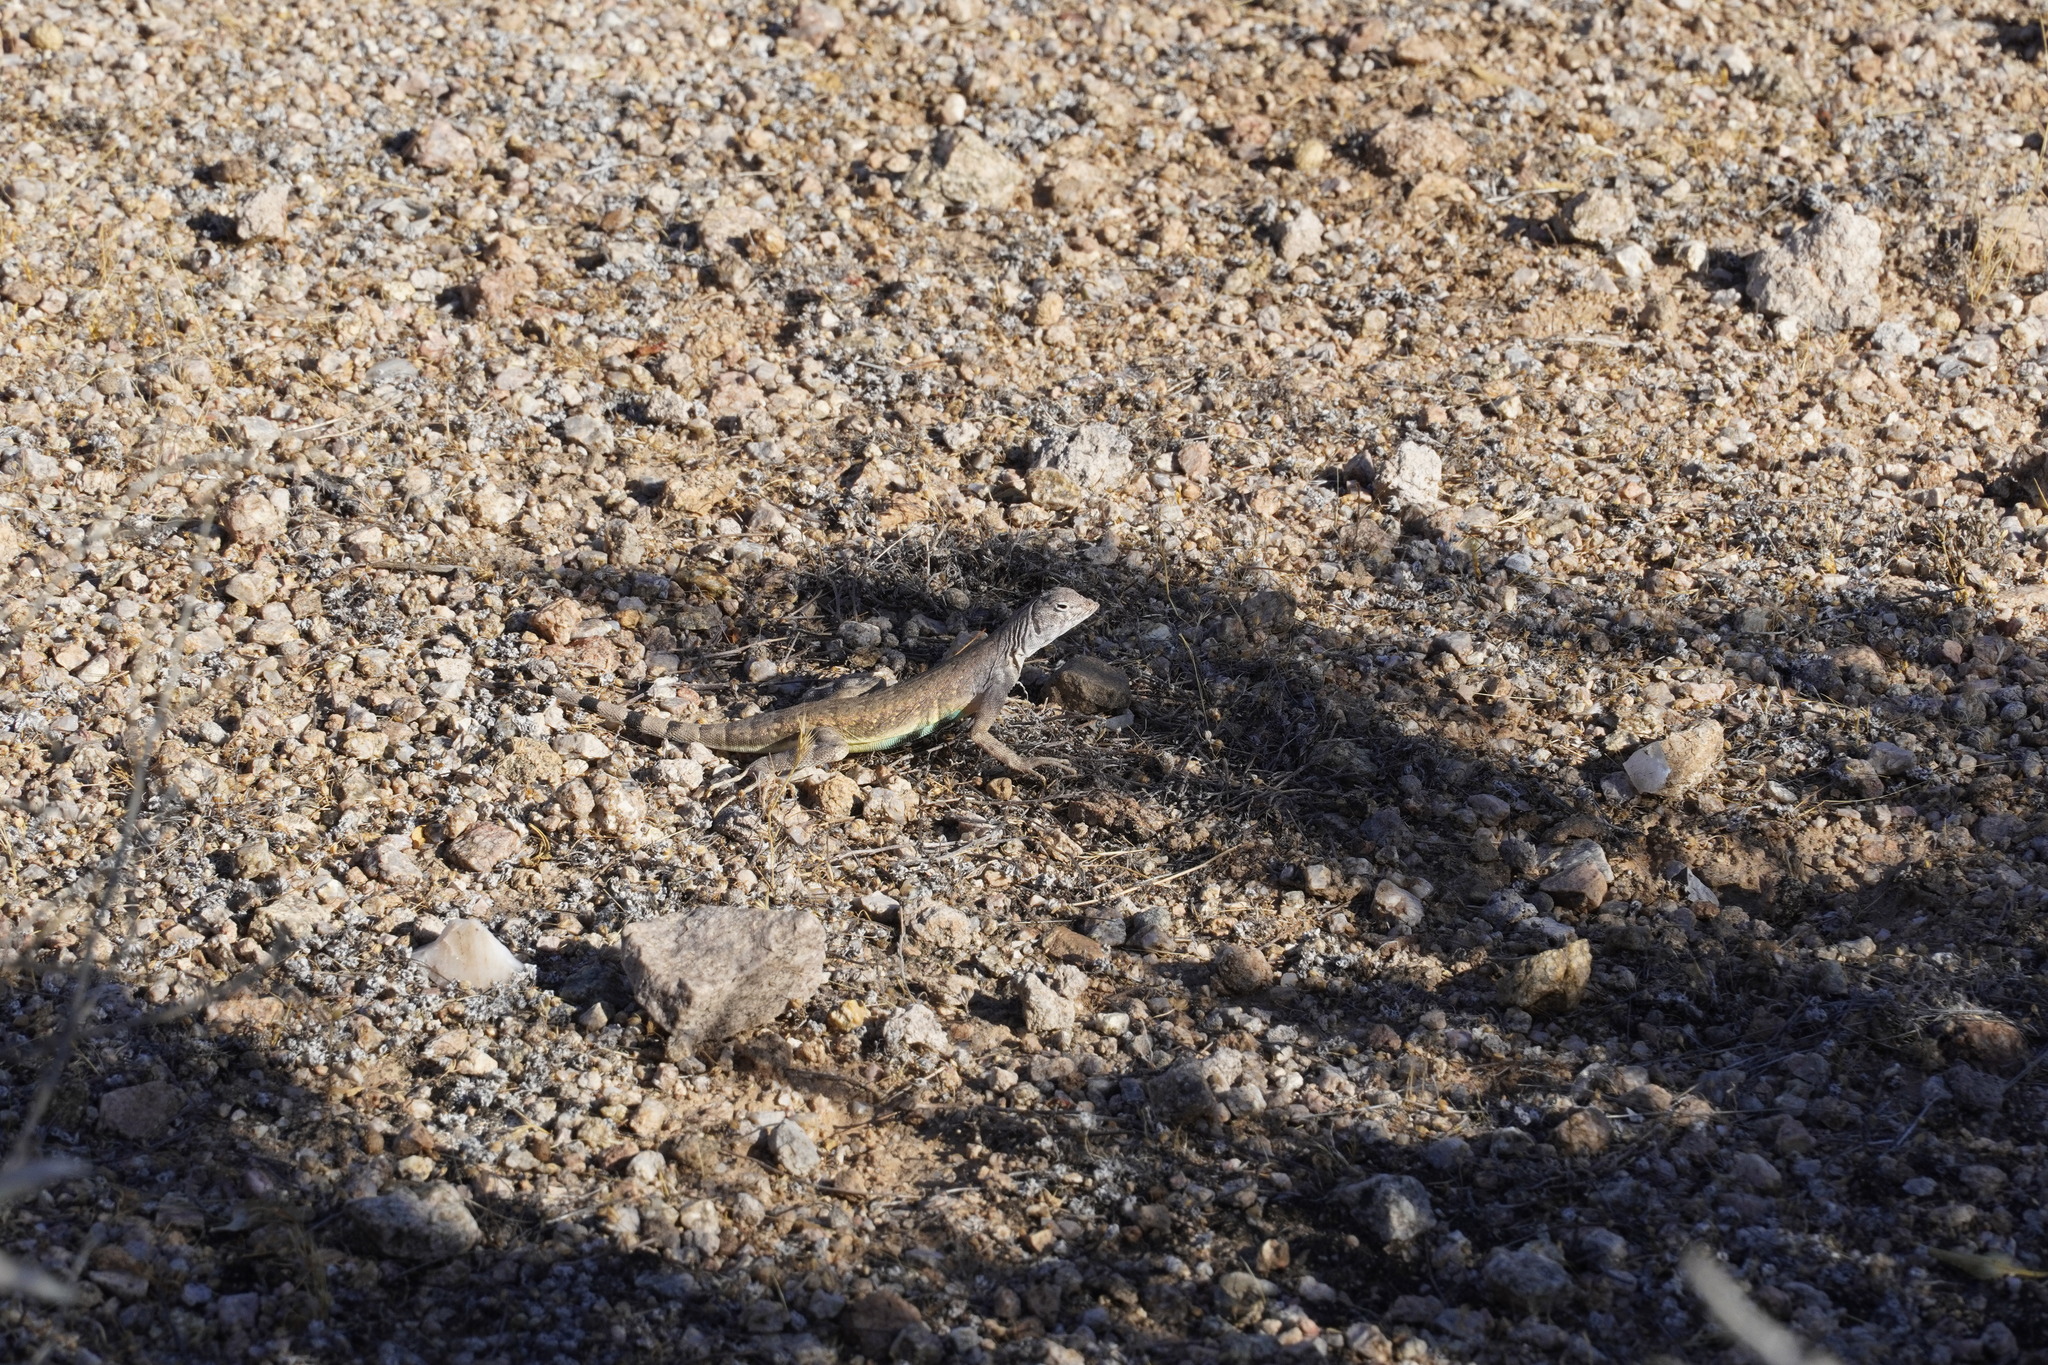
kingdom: Animalia
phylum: Chordata
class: Squamata
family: Phrynosomatidae
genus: Callisaurus
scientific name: Callisaurus draconoides
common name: Zebra-tailed lizard
